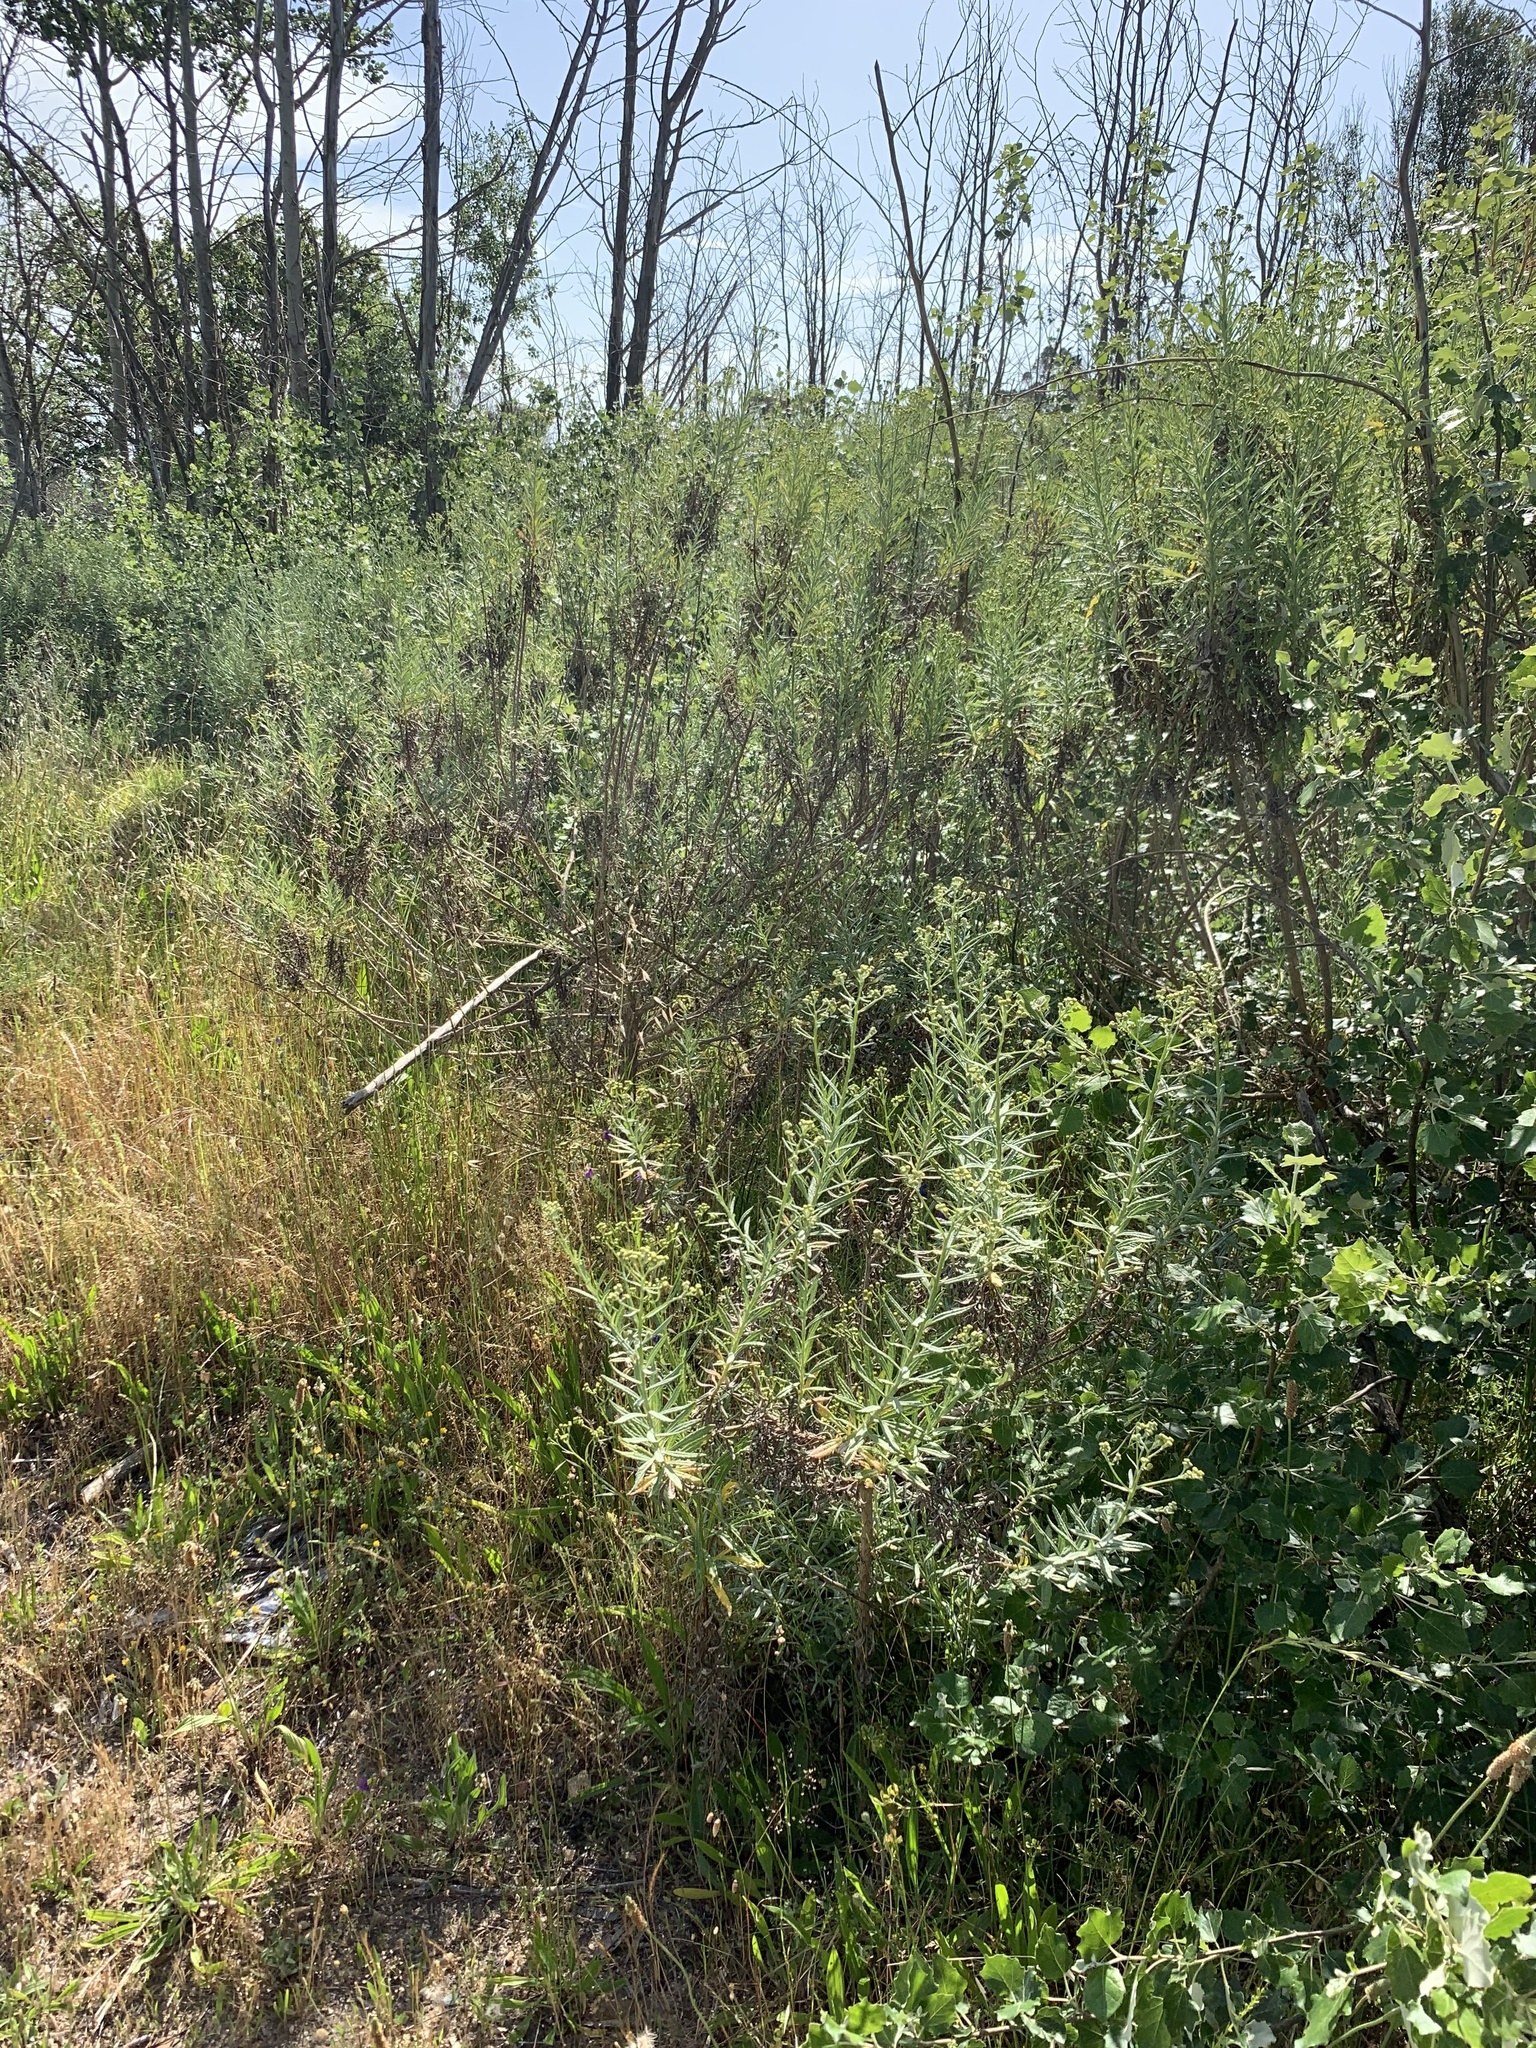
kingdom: Plantae
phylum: Tracheophyta
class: Magnoliopsida
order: Asterales
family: Asteraceae
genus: Senecio
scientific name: Senecio pterophorus
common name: Shoddy ragwort
